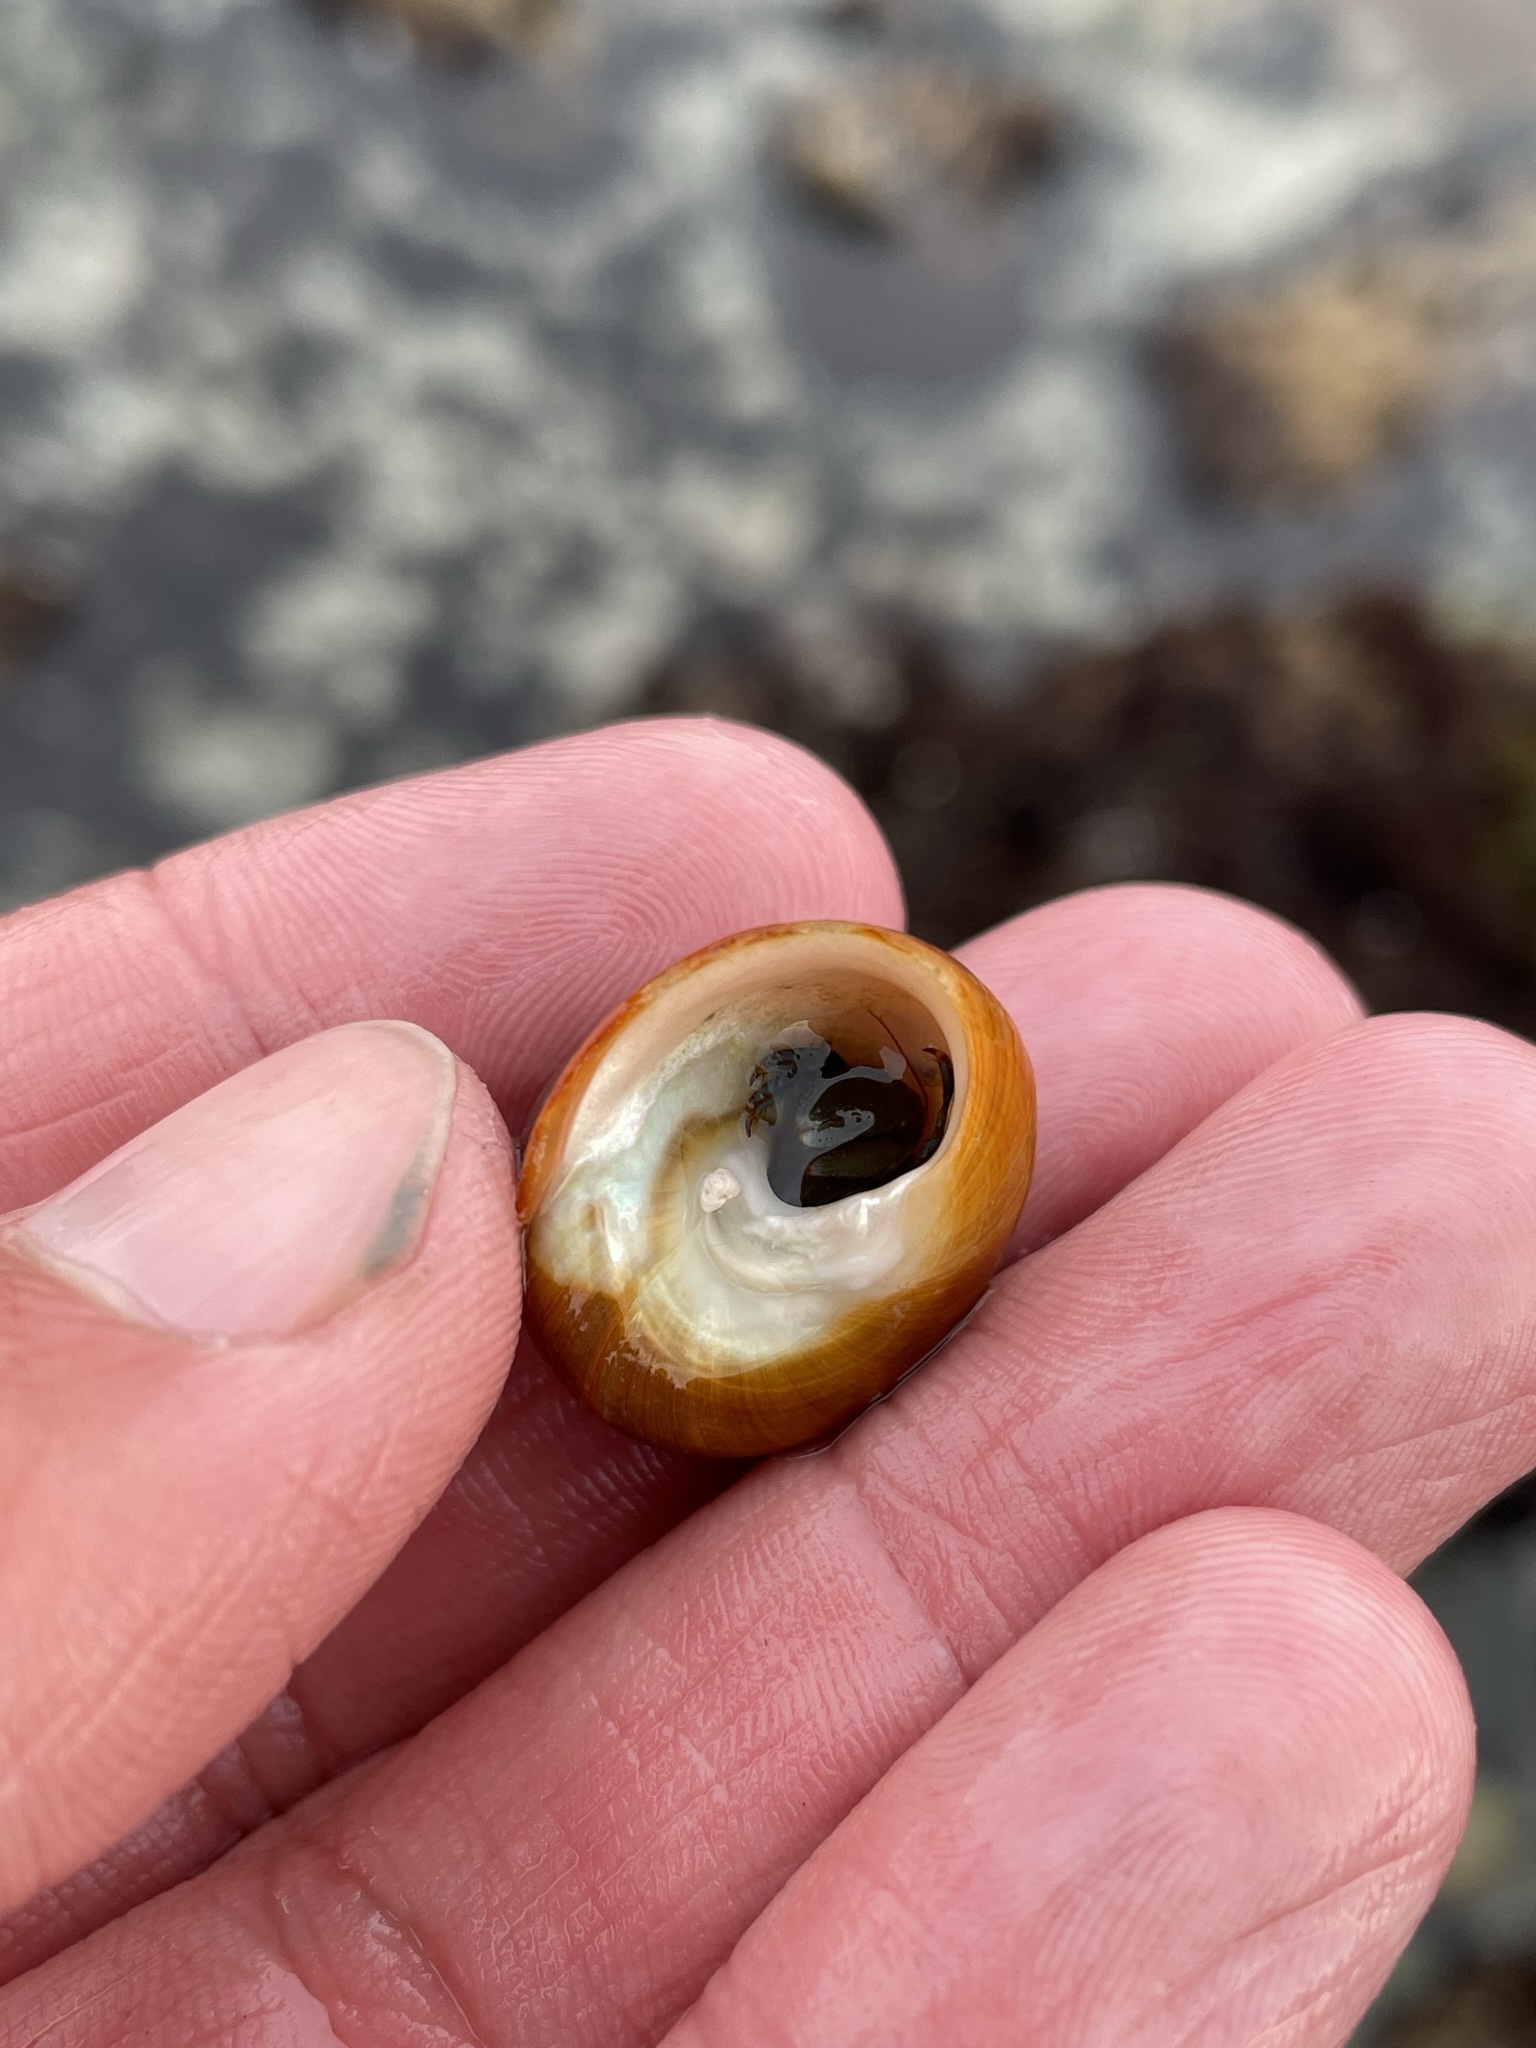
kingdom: Animalia
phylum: Arthropoda
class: Malacostraca
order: Decapoda
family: Paguridae
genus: Pagurus
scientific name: Pagurus samuelis
